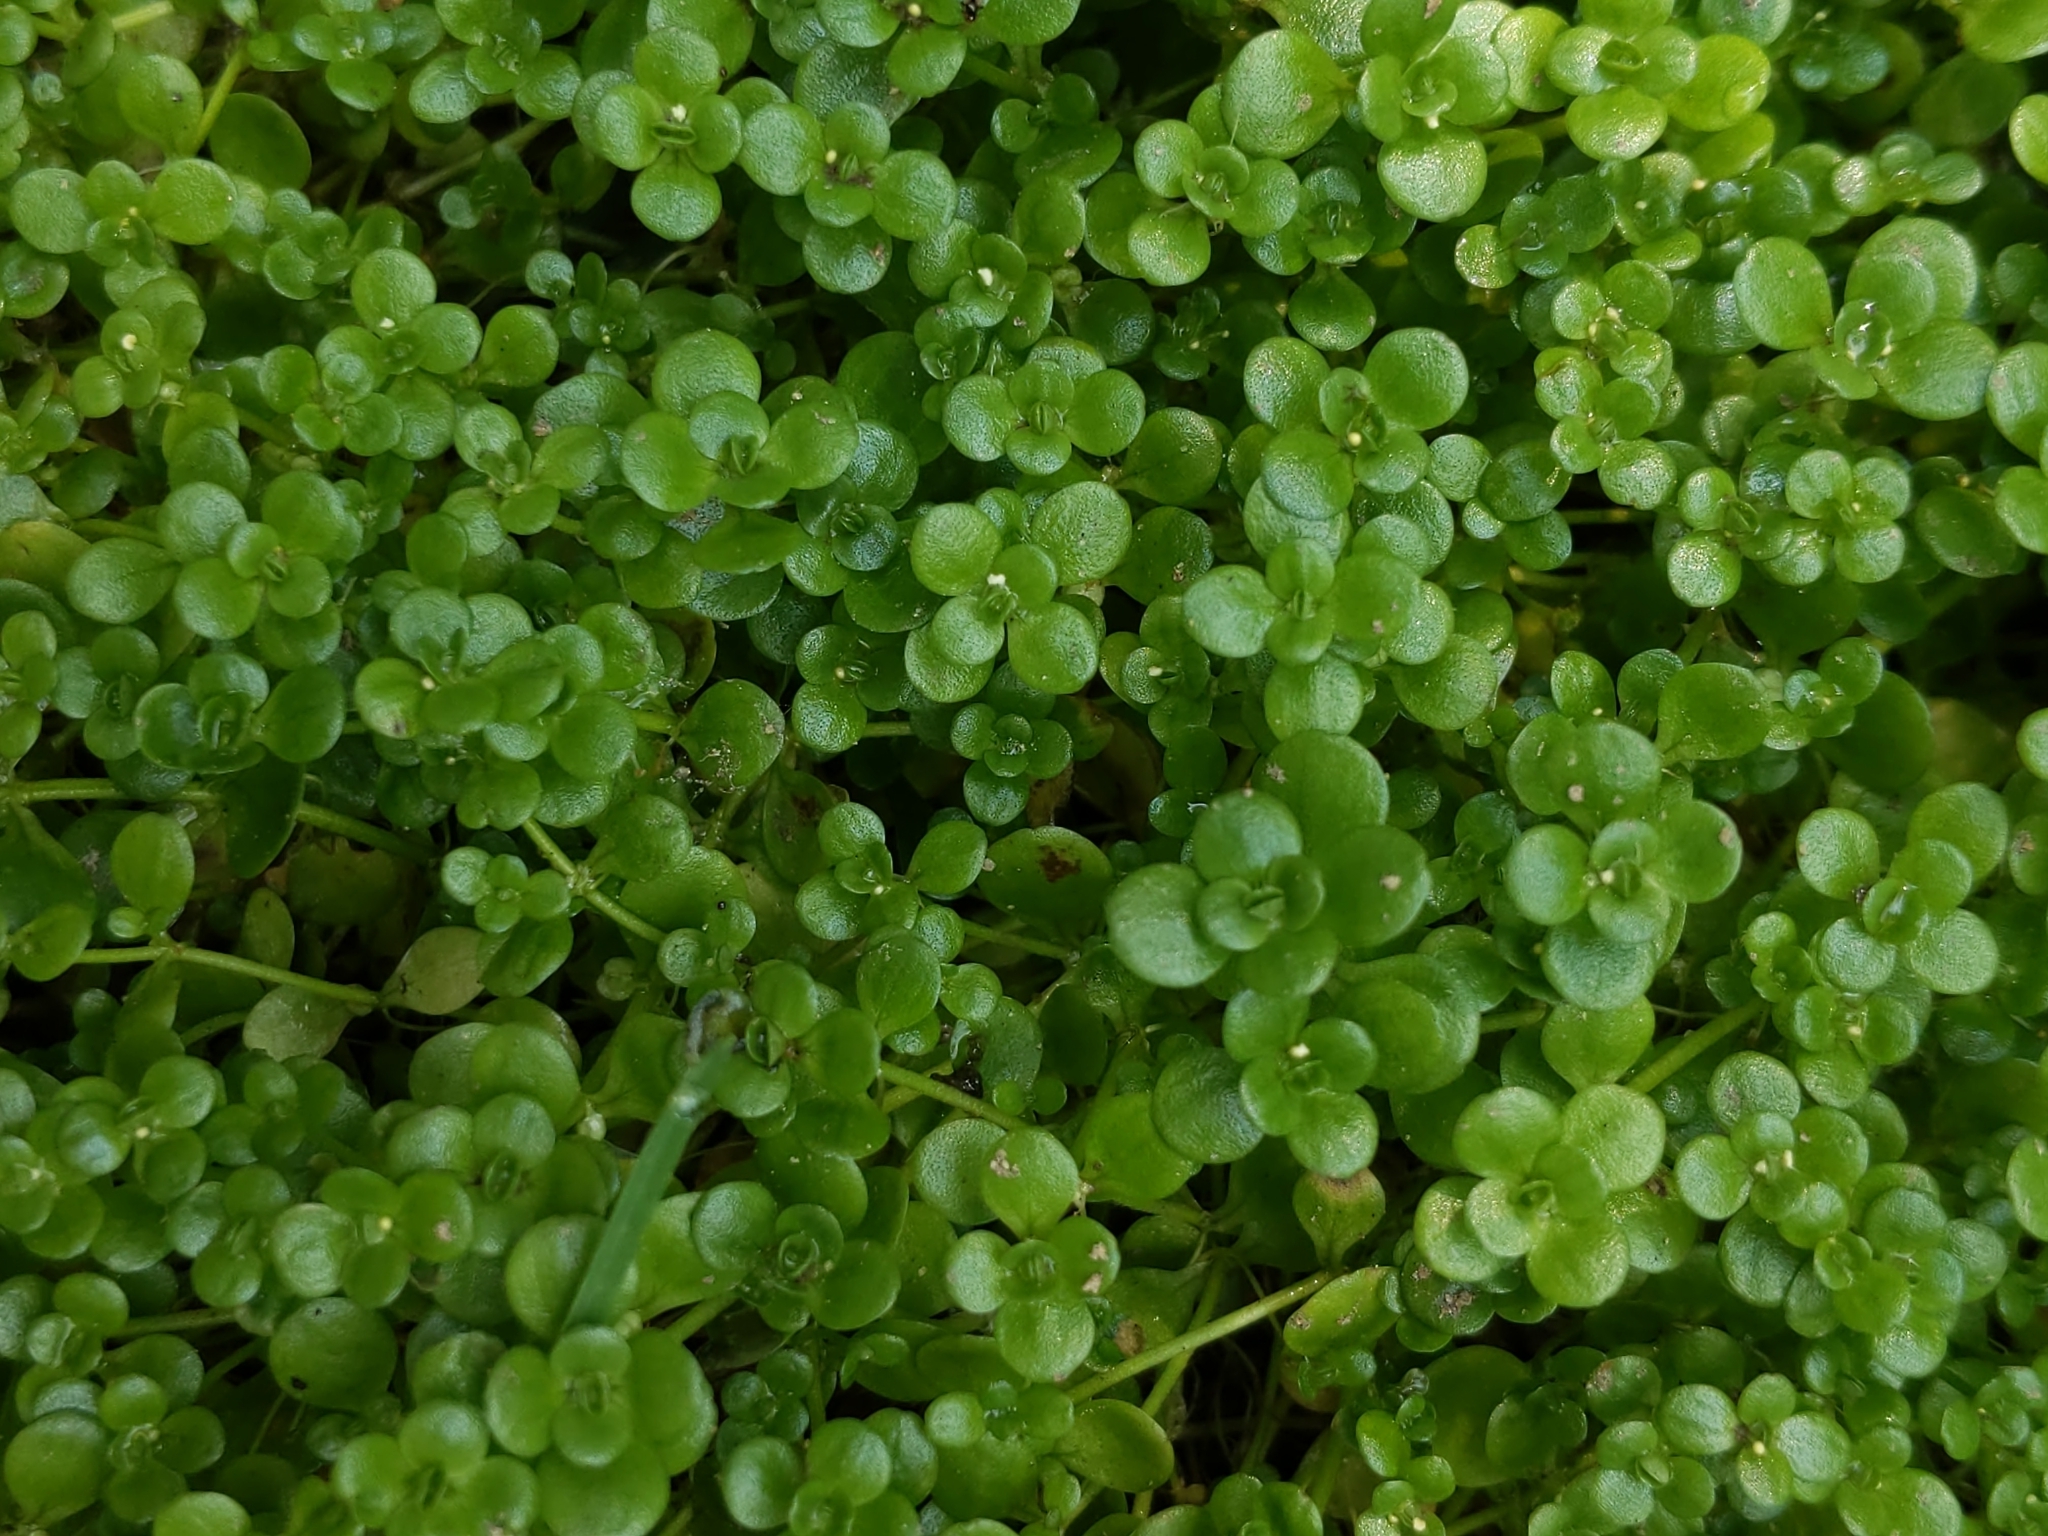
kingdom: Plantae
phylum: Tracheophyta
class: Magnoliopsida
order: Saxifragales
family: Crassulaceae
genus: Sedum
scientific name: Sedum makinoi
